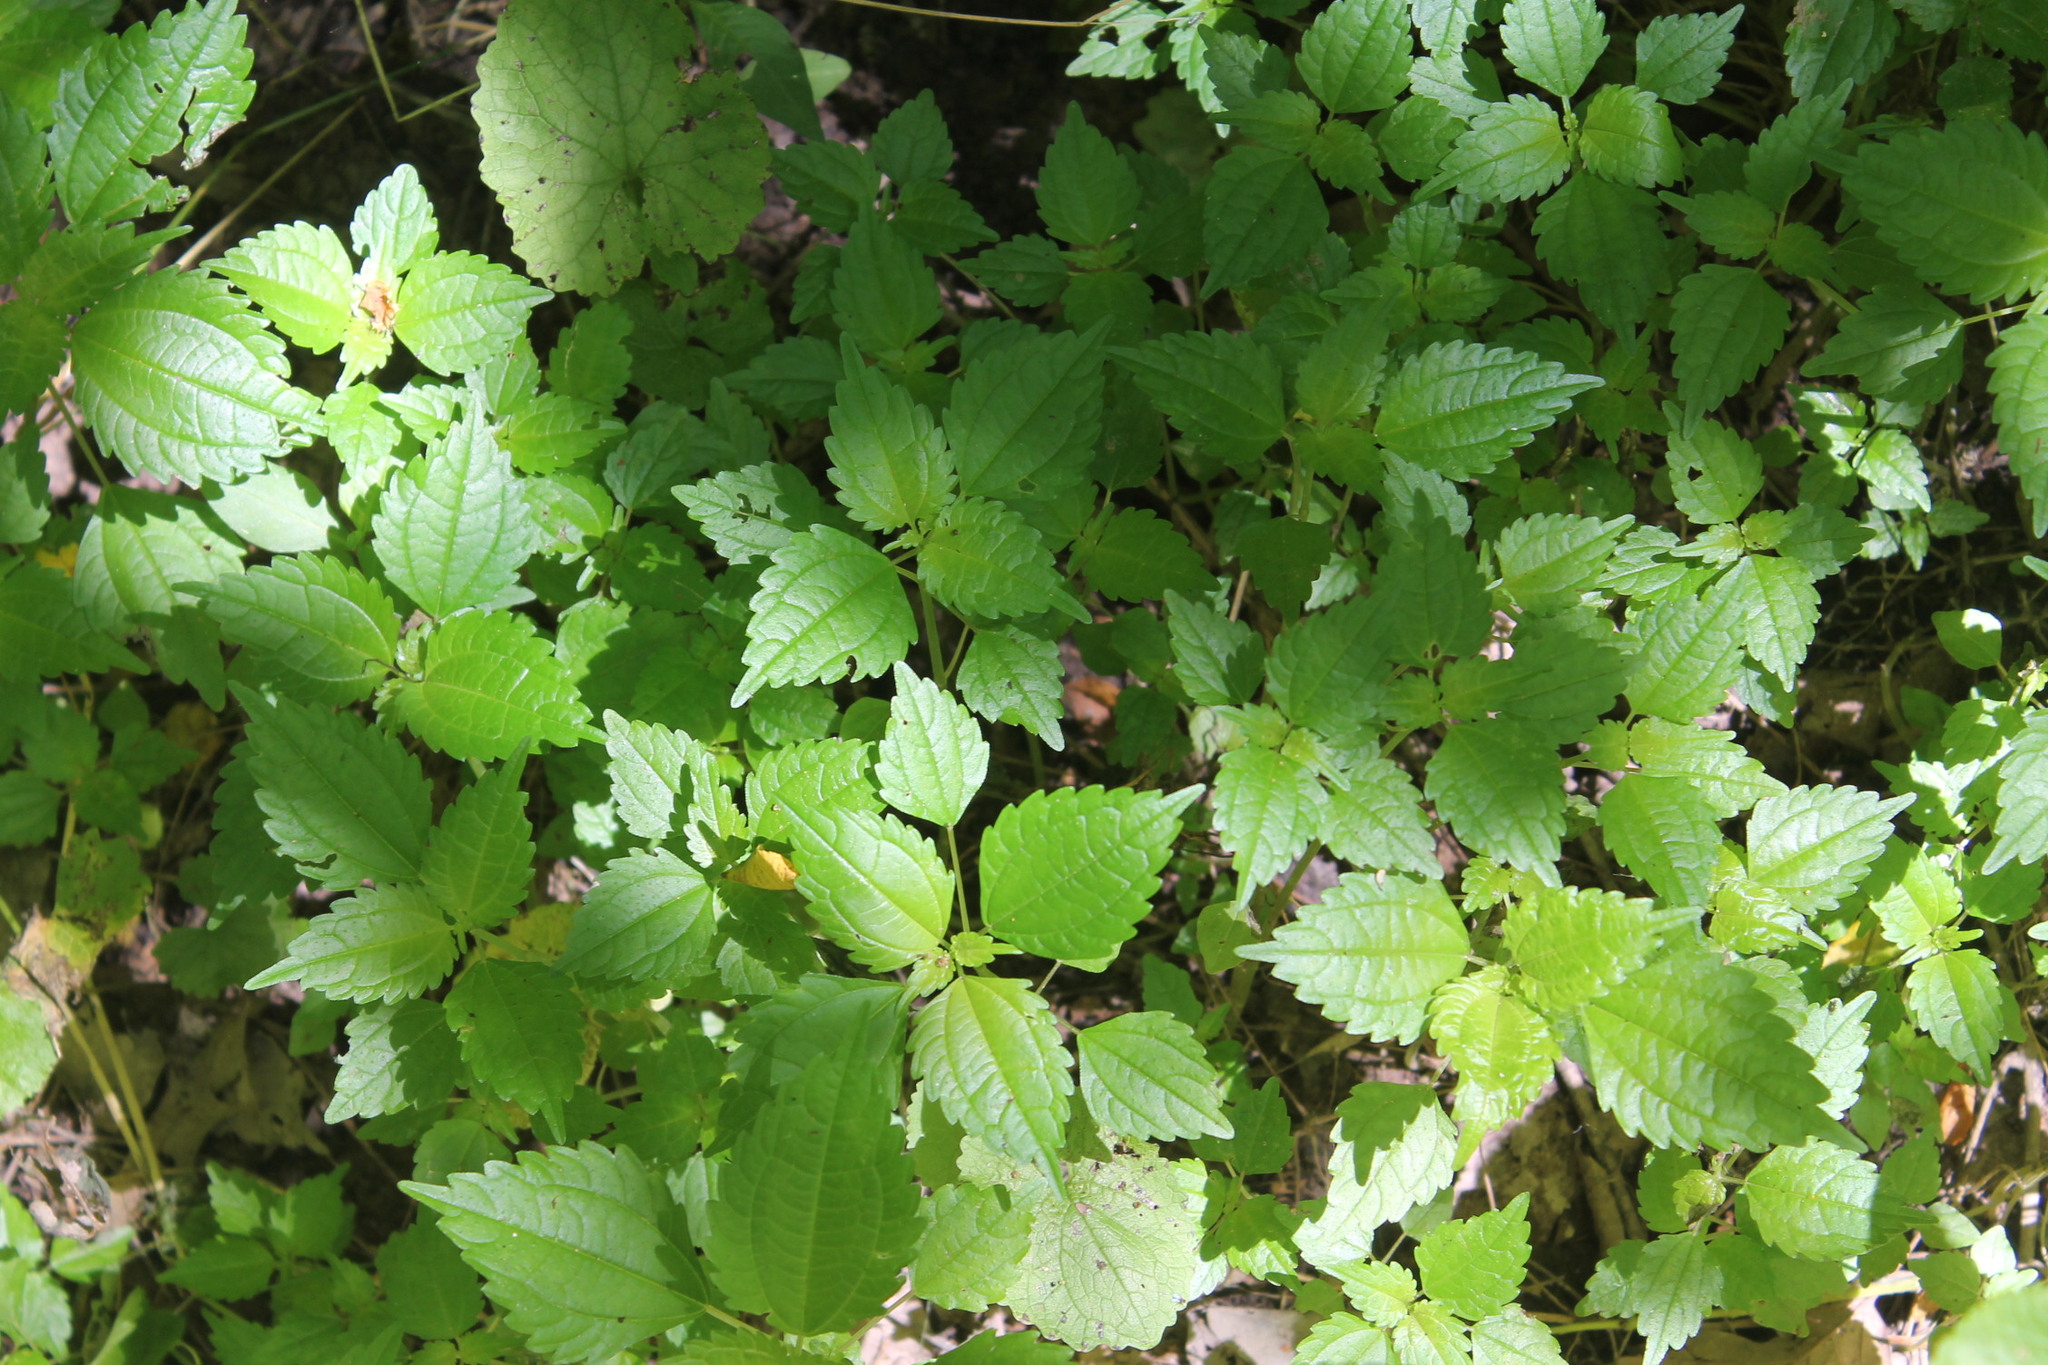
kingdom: Plantae
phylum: Tracheophyta
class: Magnoliopsida
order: Rosales
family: Urticaceae
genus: Pilea
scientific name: Pilea pumila
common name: Clearweed
